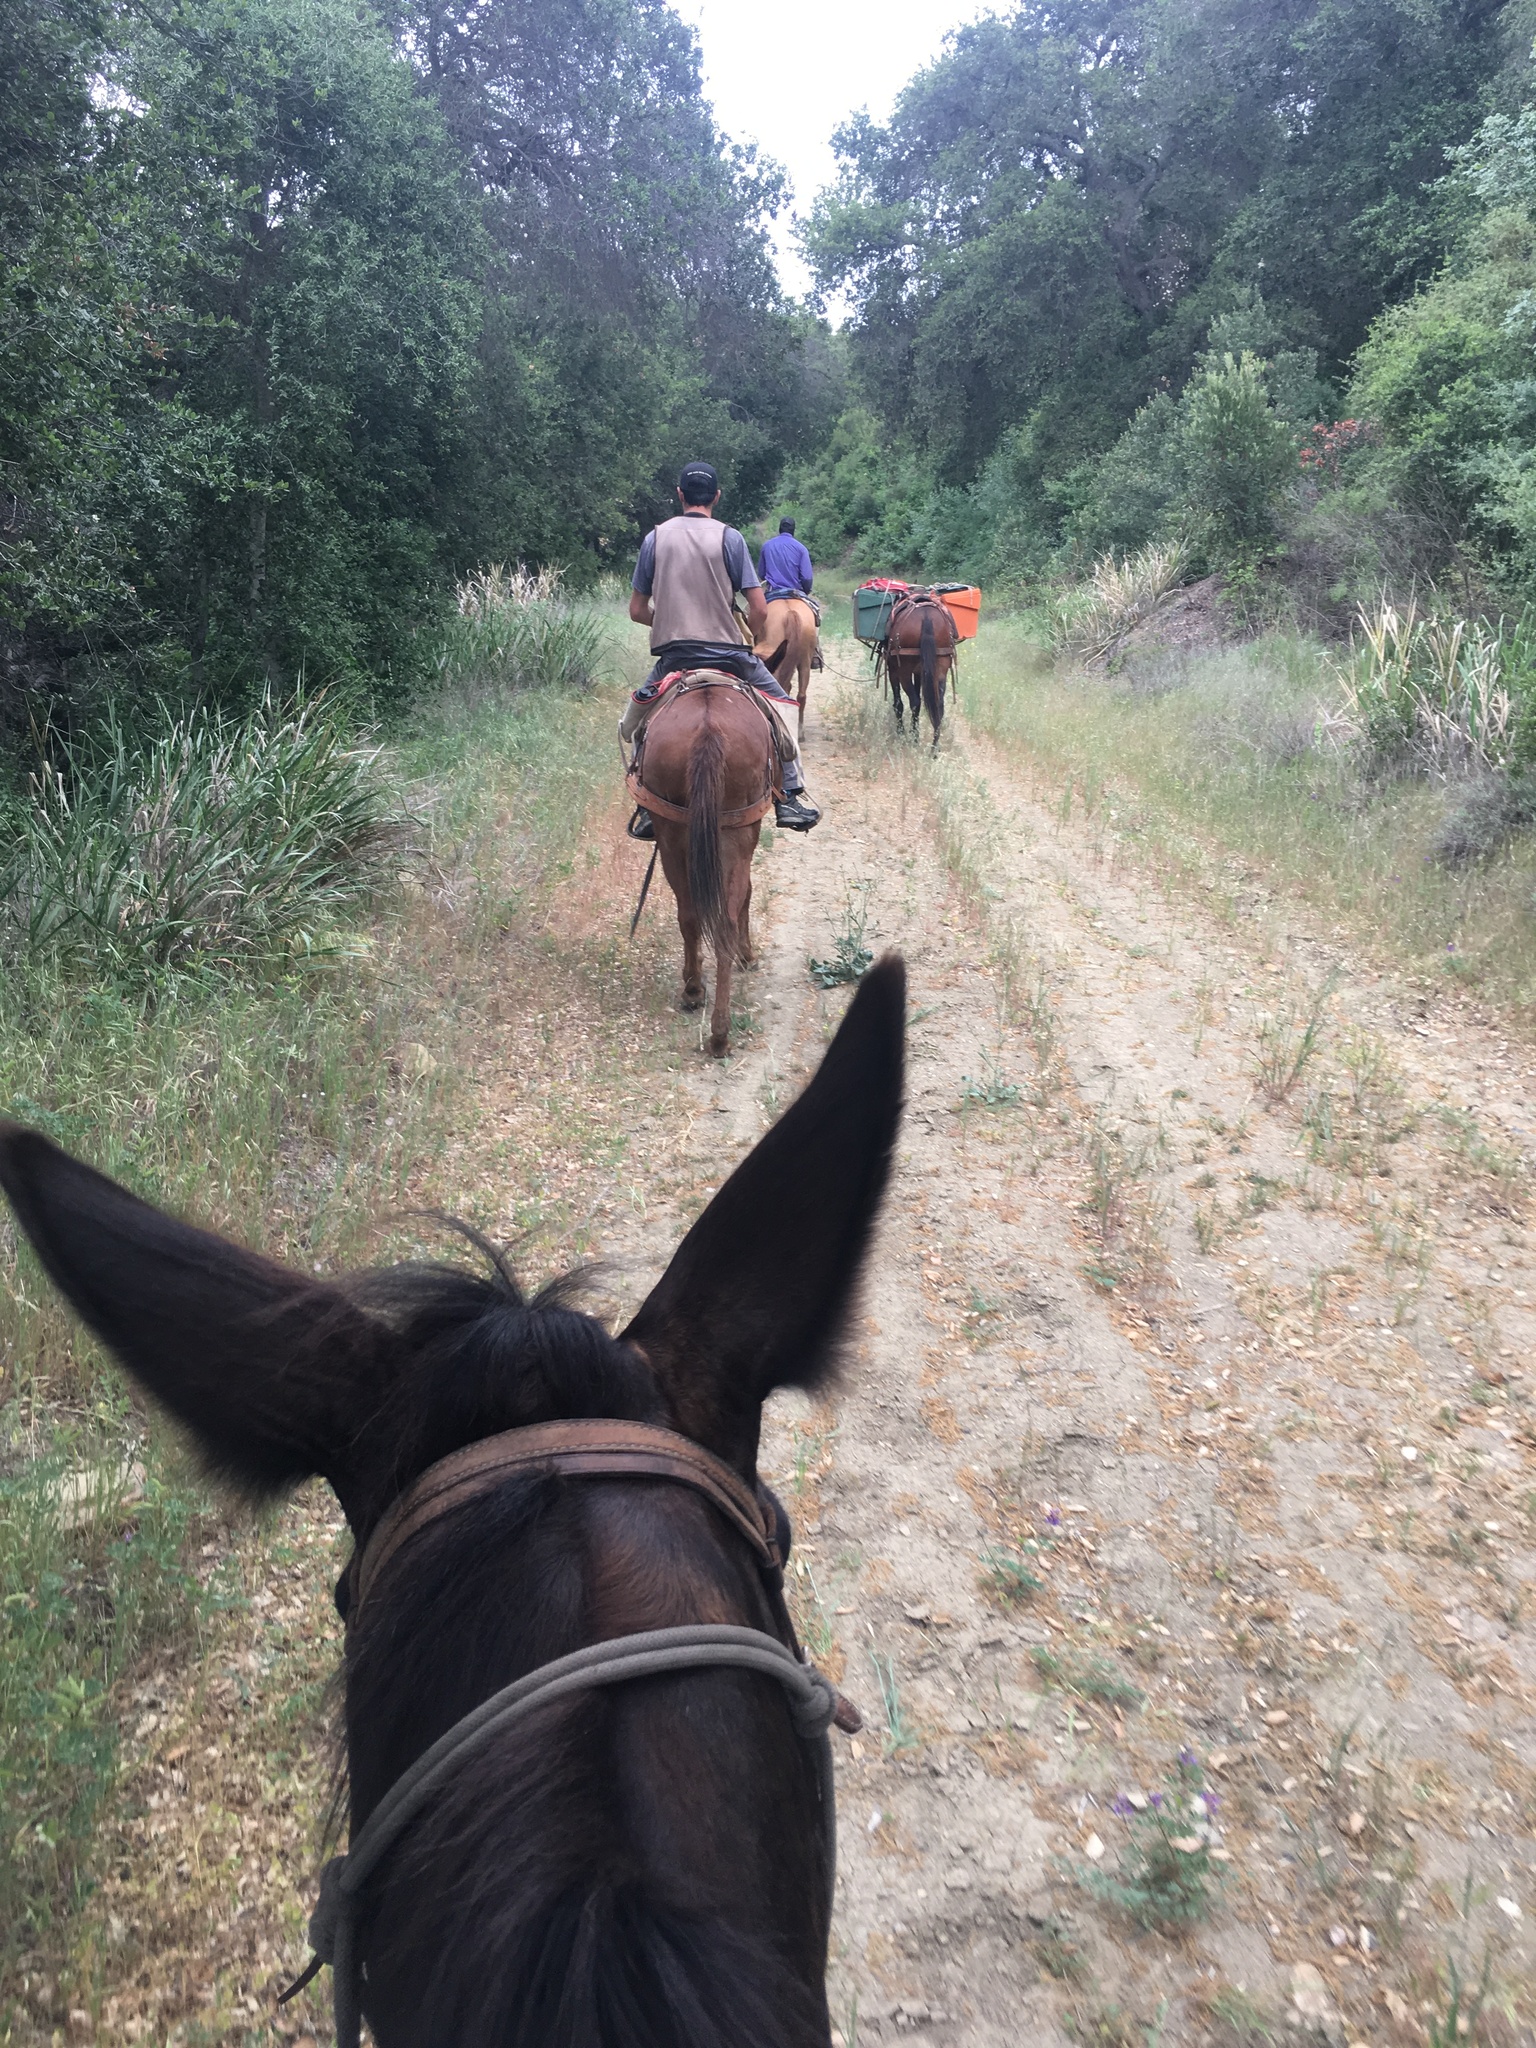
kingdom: Plantae
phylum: Tracheophyta
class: Liliopsida
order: Poales
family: Poaceae
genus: Leymus
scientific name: Leymus condensatus
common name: Giant wild rye
